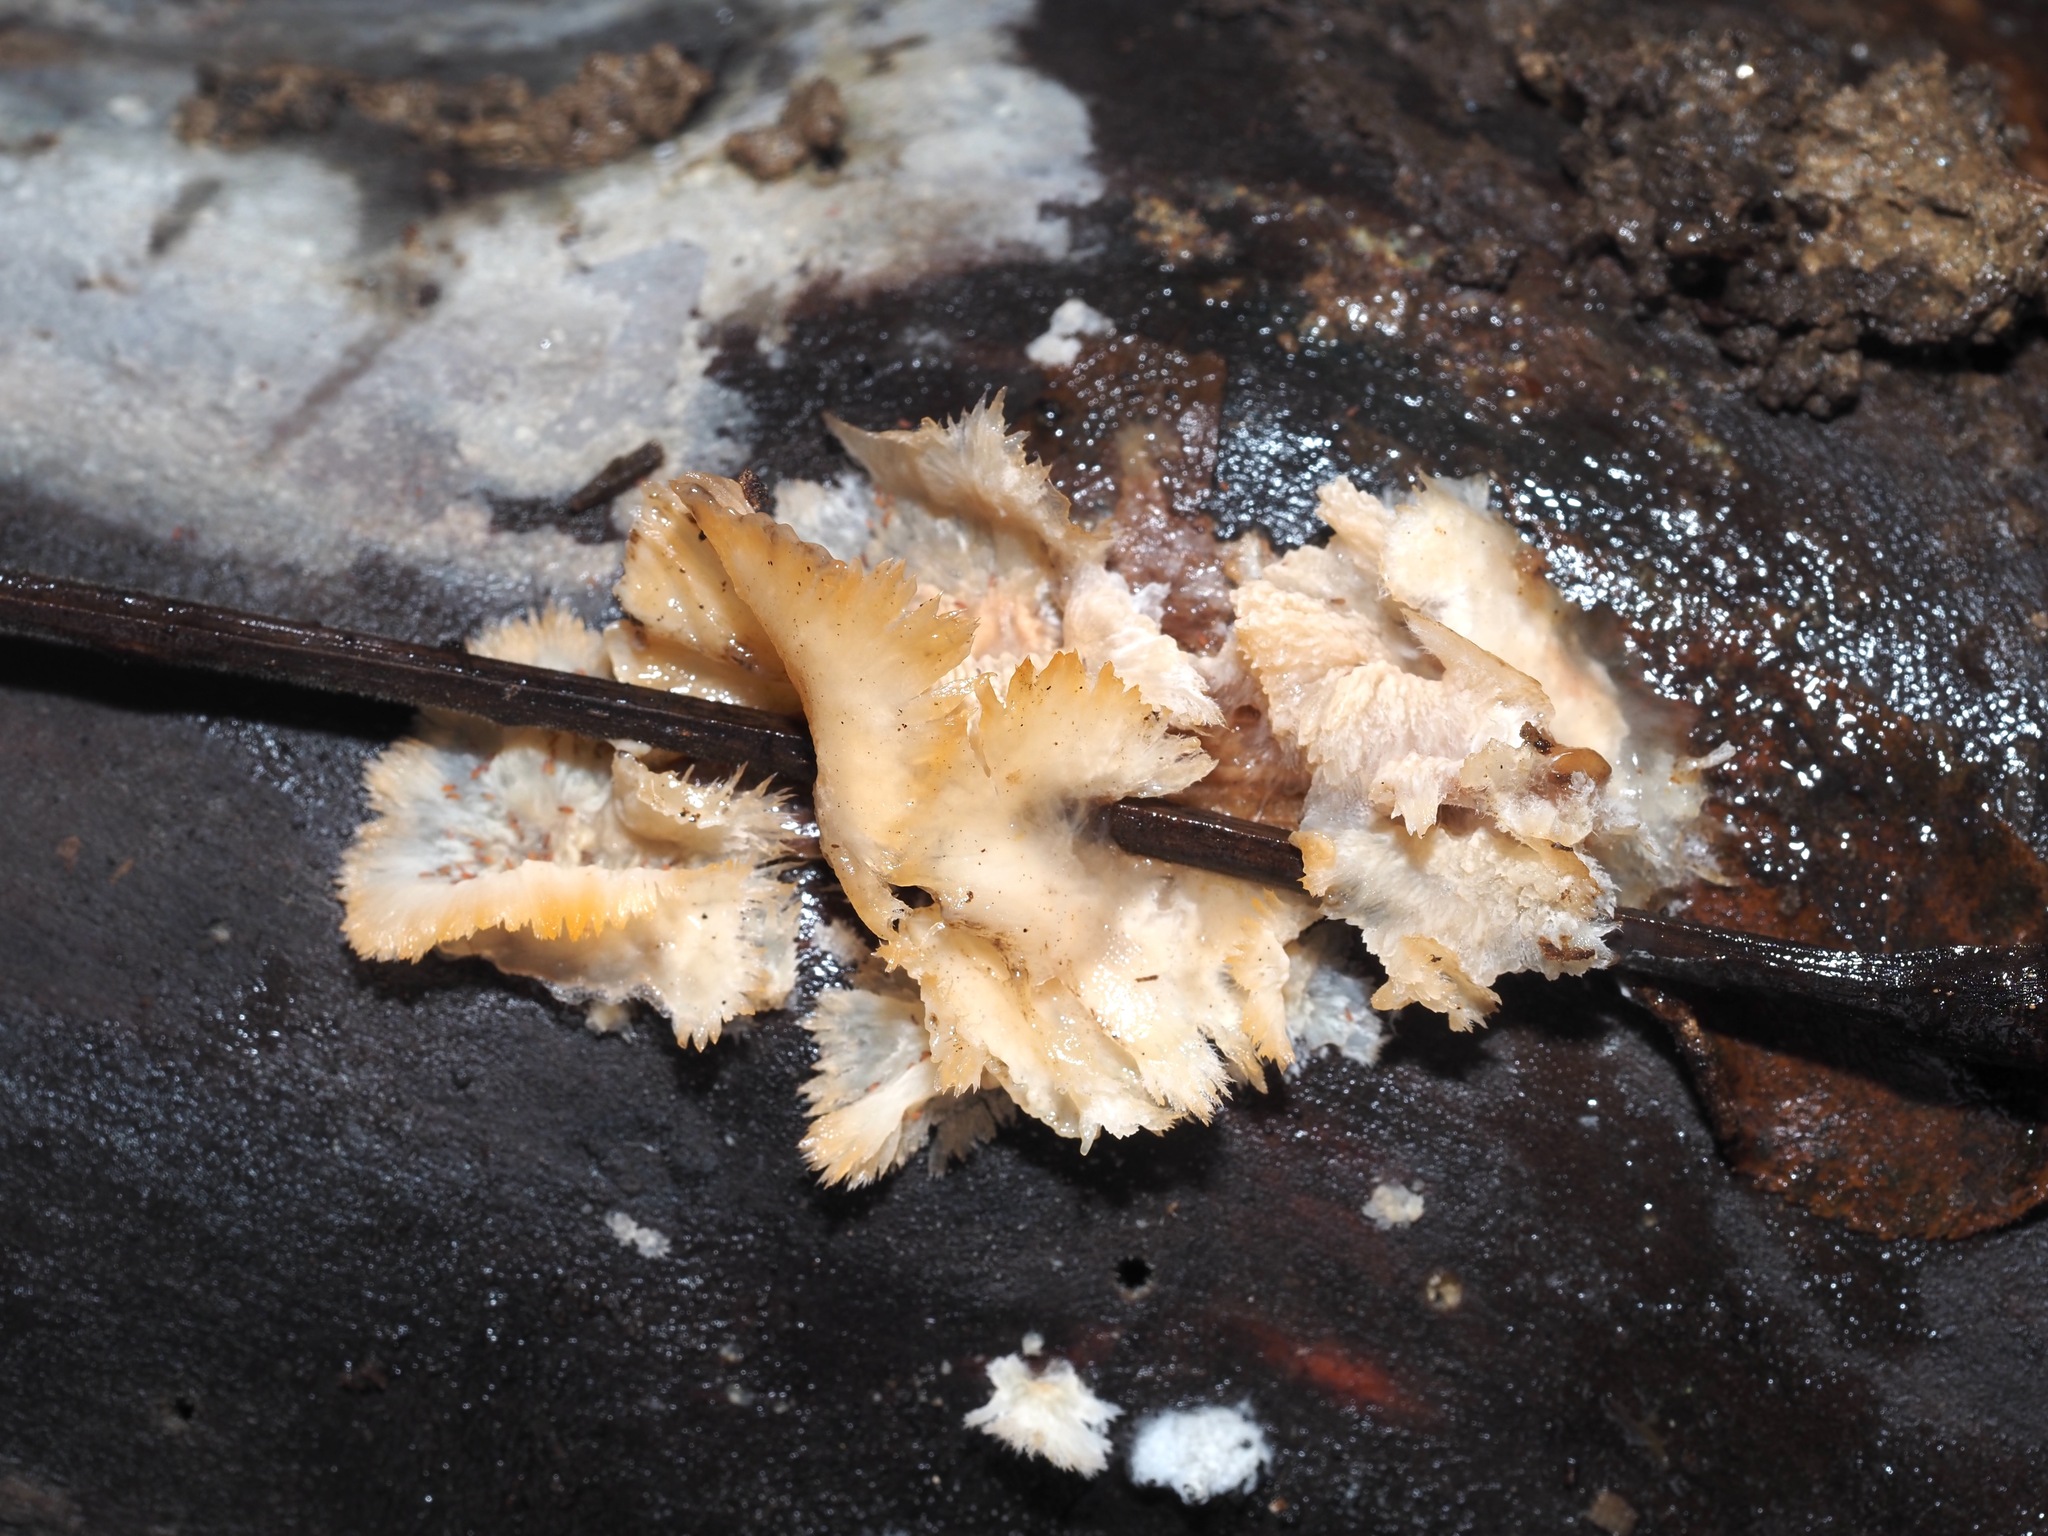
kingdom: Fungi
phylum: Basidiomycota
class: Agaricomycetes
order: Polyporales
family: Meruliaceae
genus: Phlebia
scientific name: Phlebia tremellosa
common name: Jelly rot
